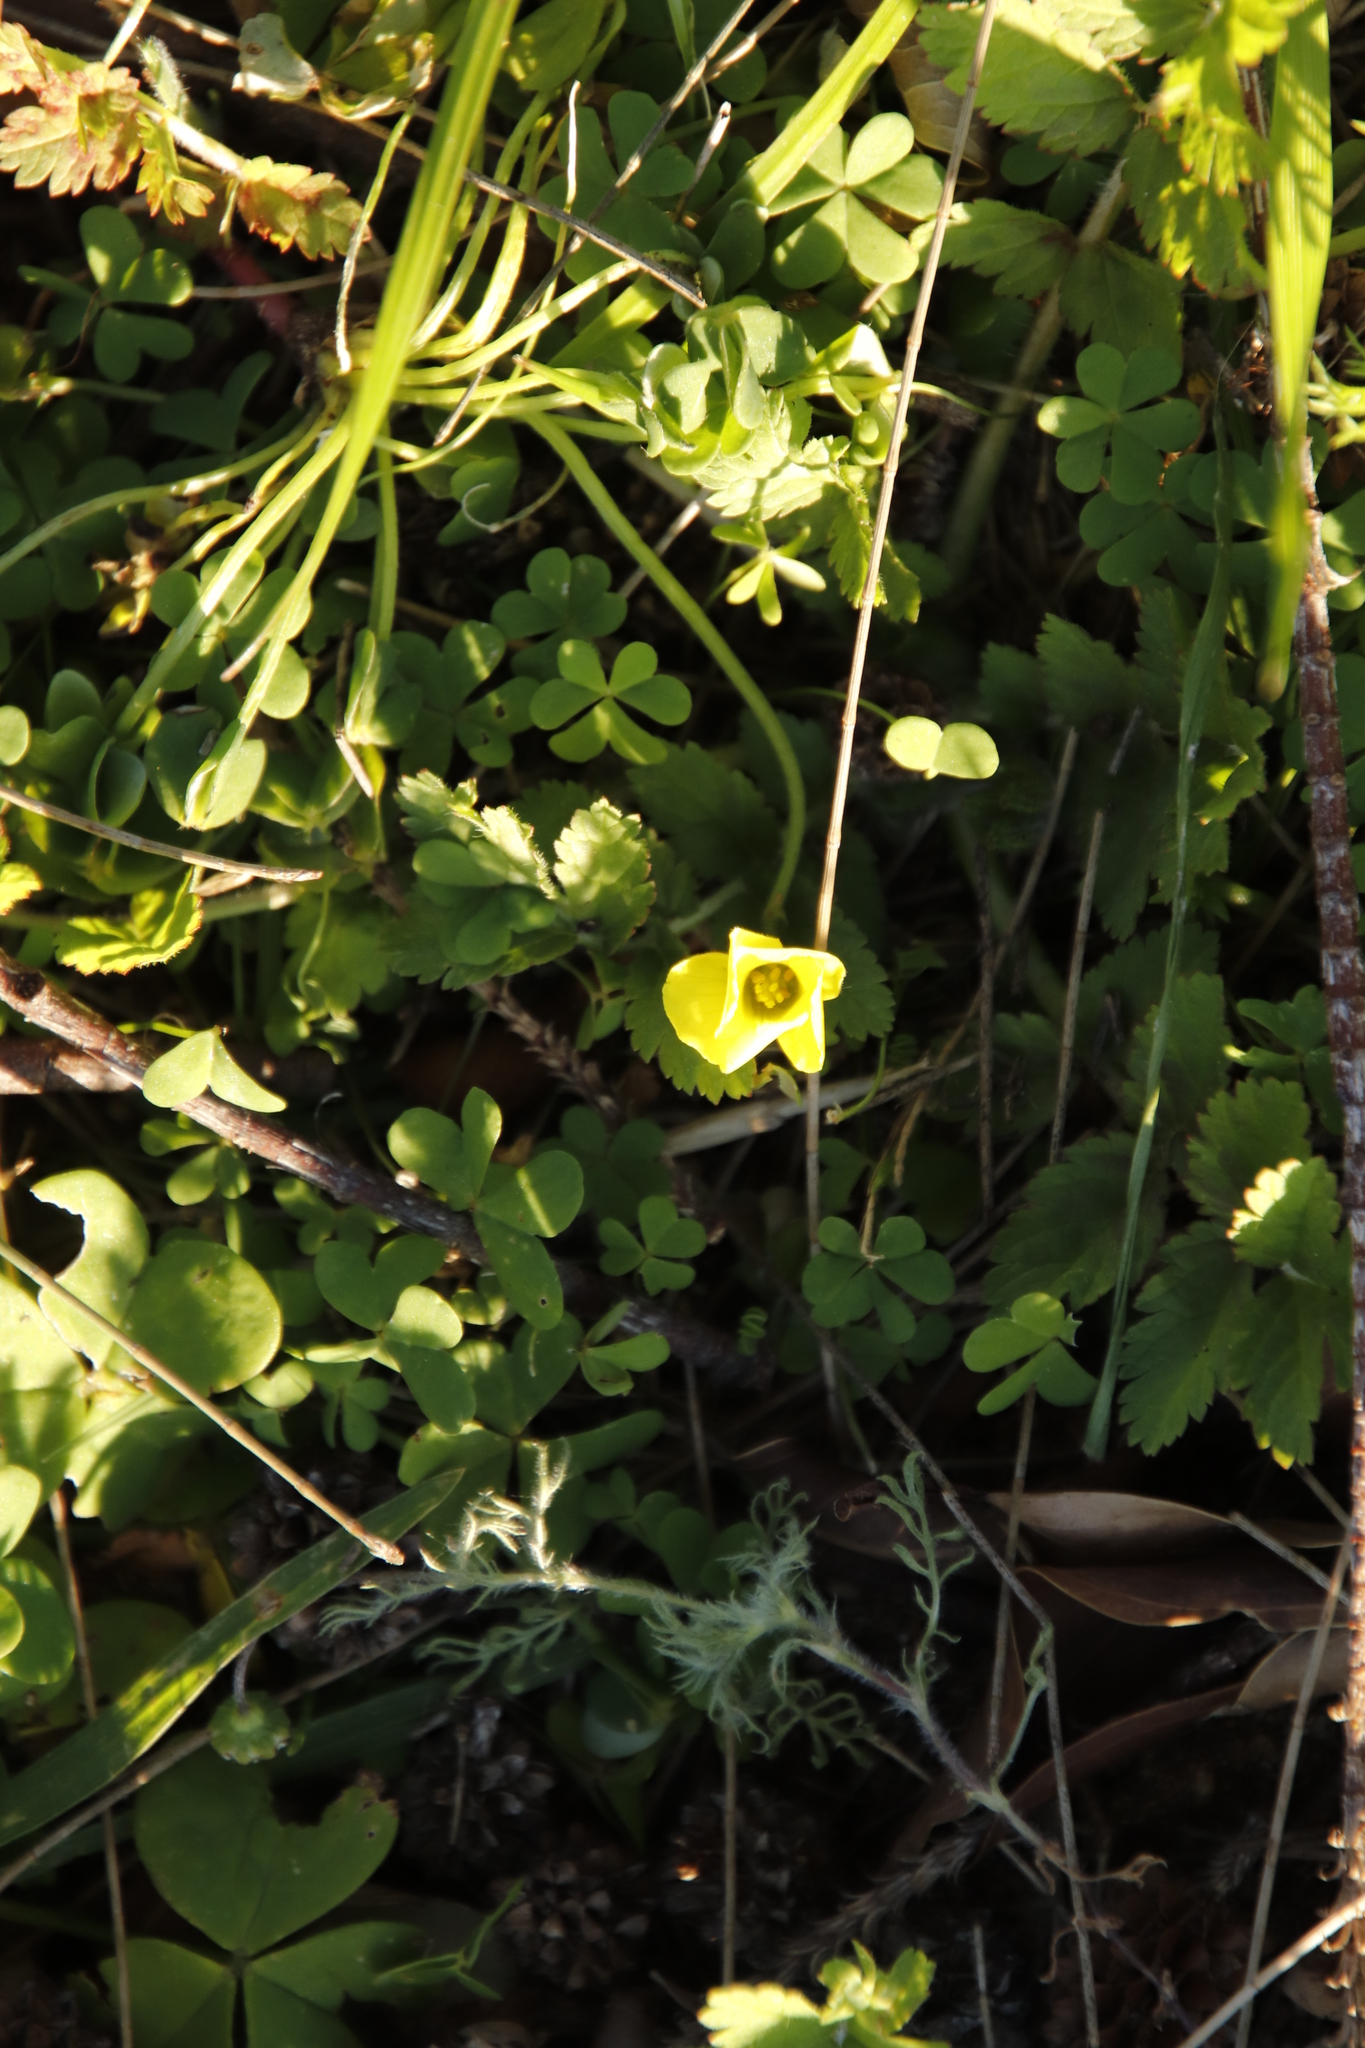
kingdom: Plantae
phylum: Tracheophyta
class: Magnoliopsida
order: Oxalidales
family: Oxalidaceae
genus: Oxalis
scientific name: Oxalis pes-caprae
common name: Bermuda-buttercup
